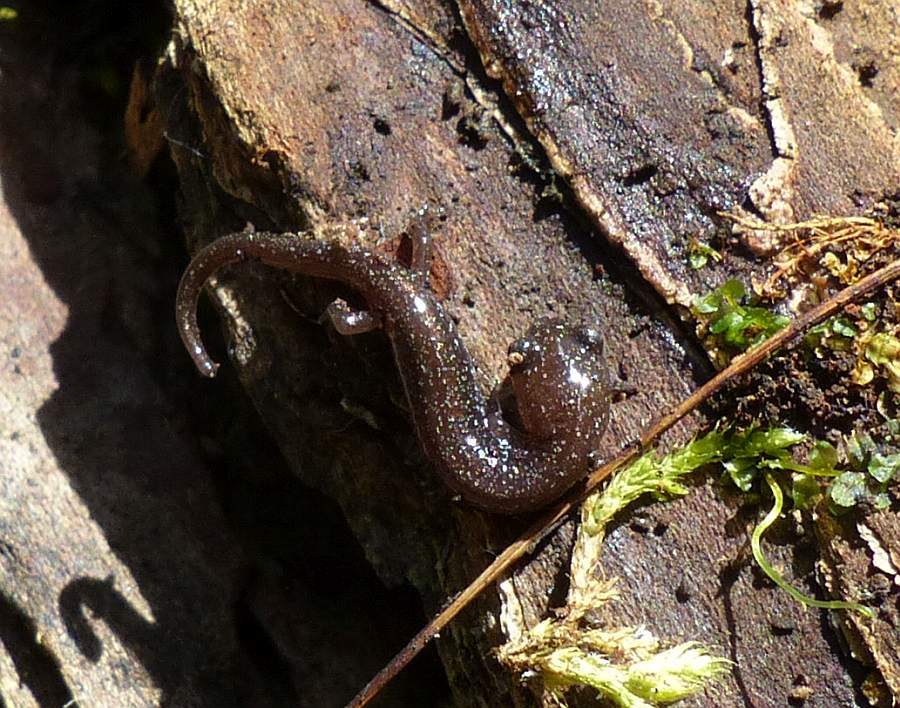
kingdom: Animalia
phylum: Chordata
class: Amphibia
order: Caudata
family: Plethodontidae
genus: Plethodon
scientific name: Plethodon cinereus
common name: Redback salamander
